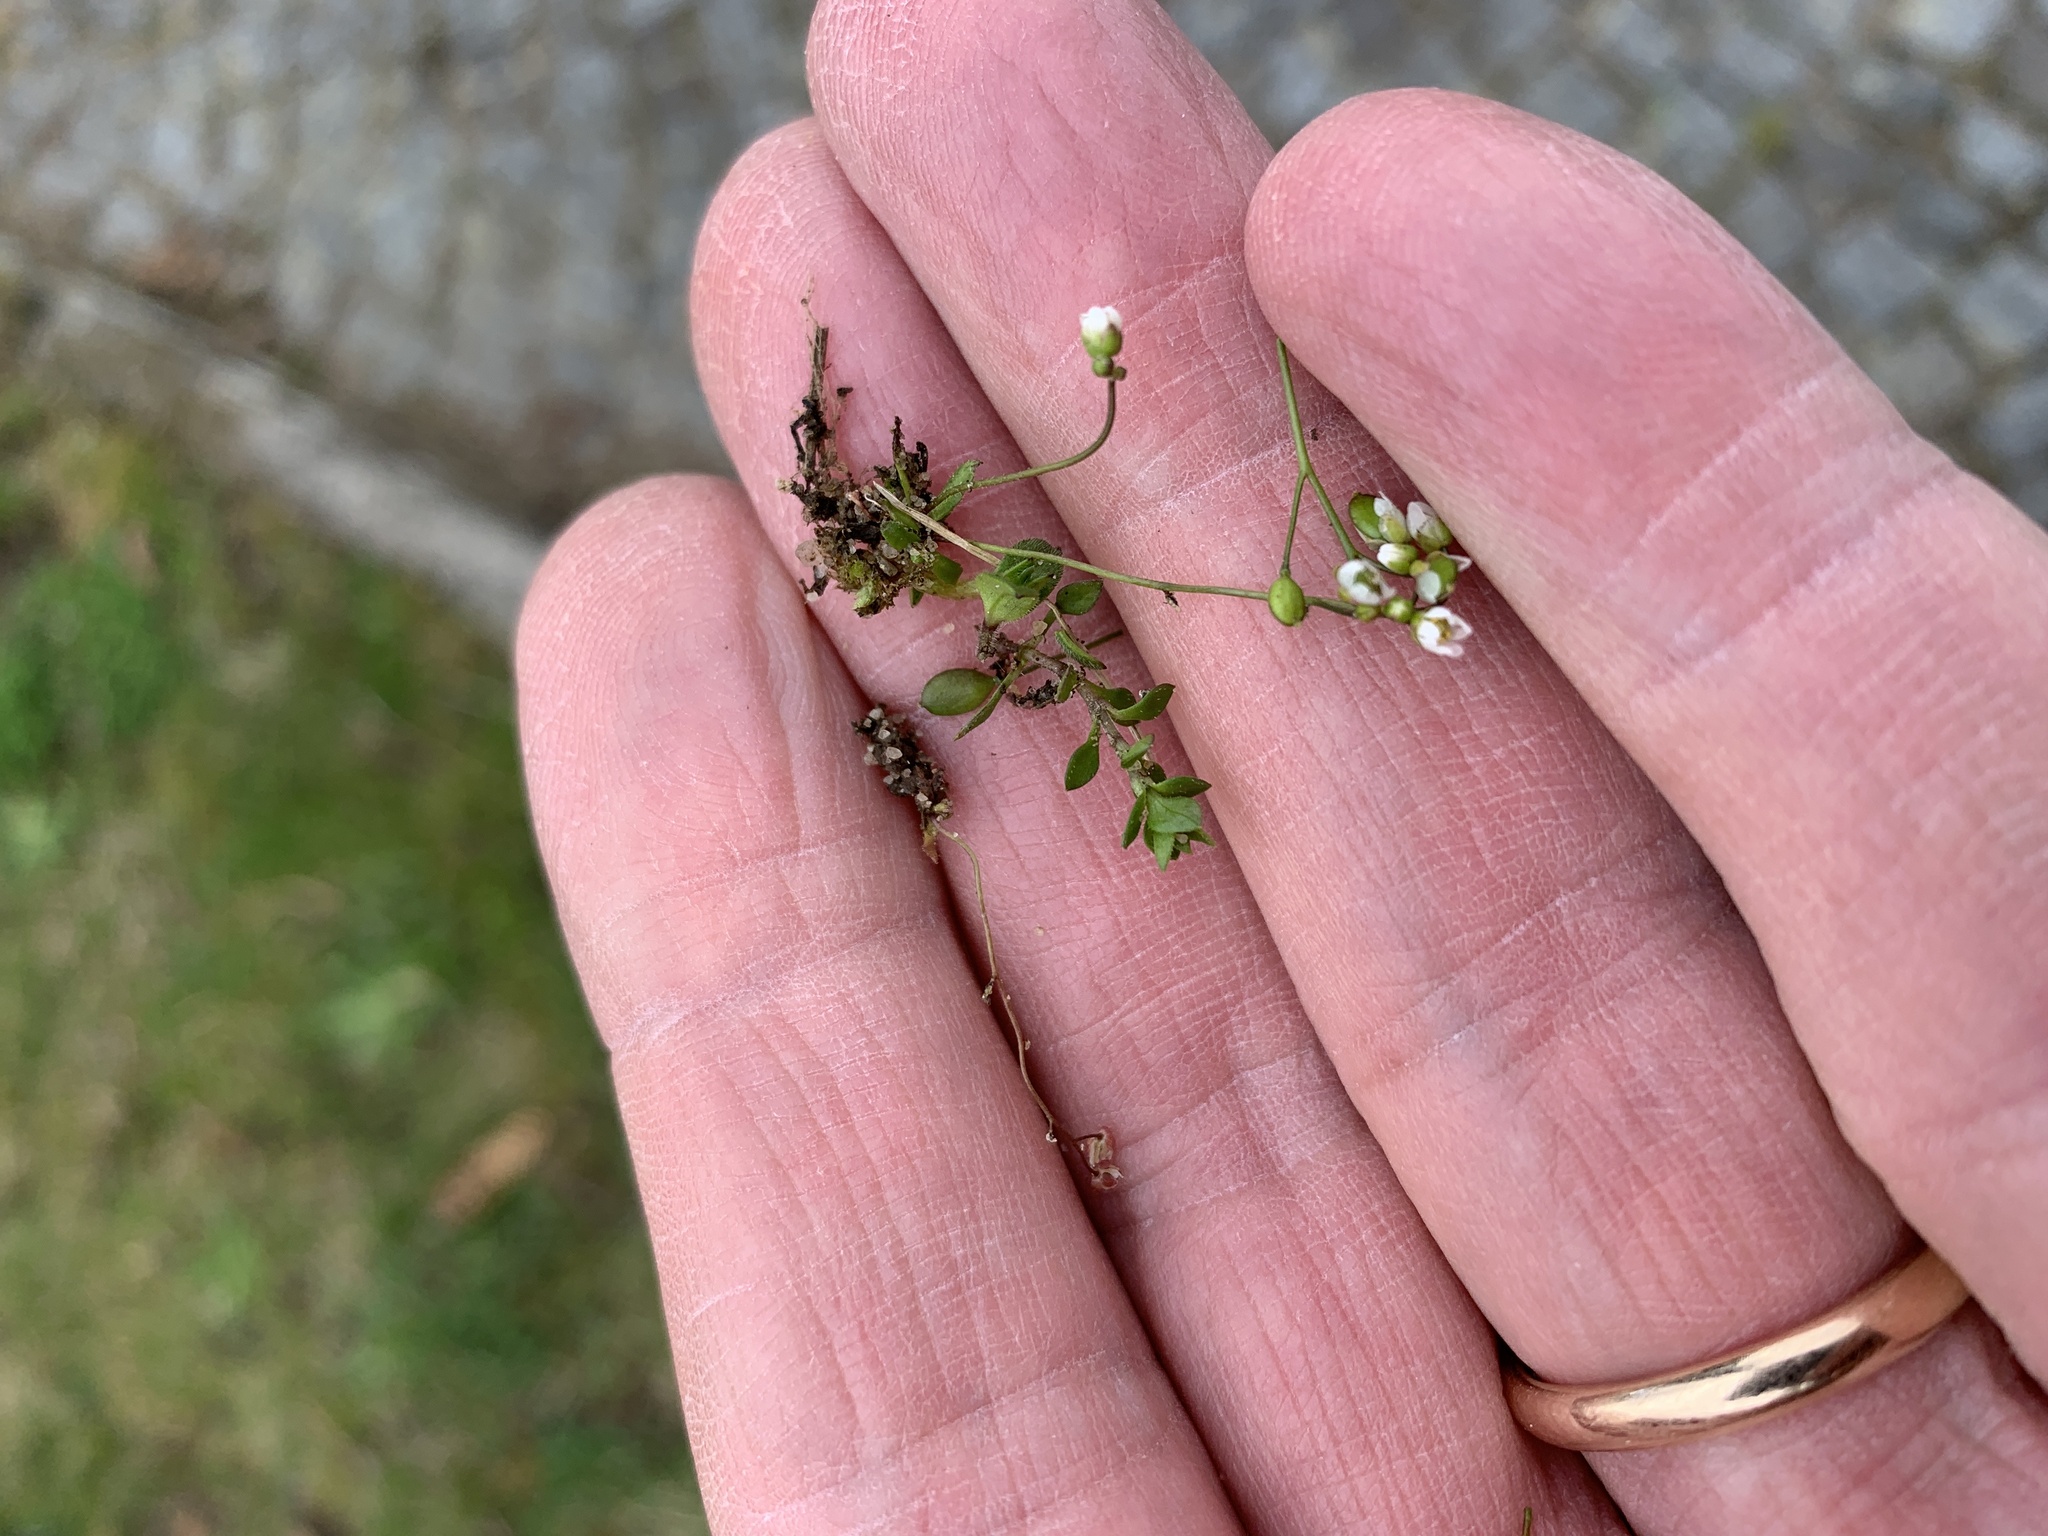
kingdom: Plantae
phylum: Tracheophyta
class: Magnoliopsida
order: Brassicales
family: Brassicaceae
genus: Draba
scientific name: Draba verna
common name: Spring draba
